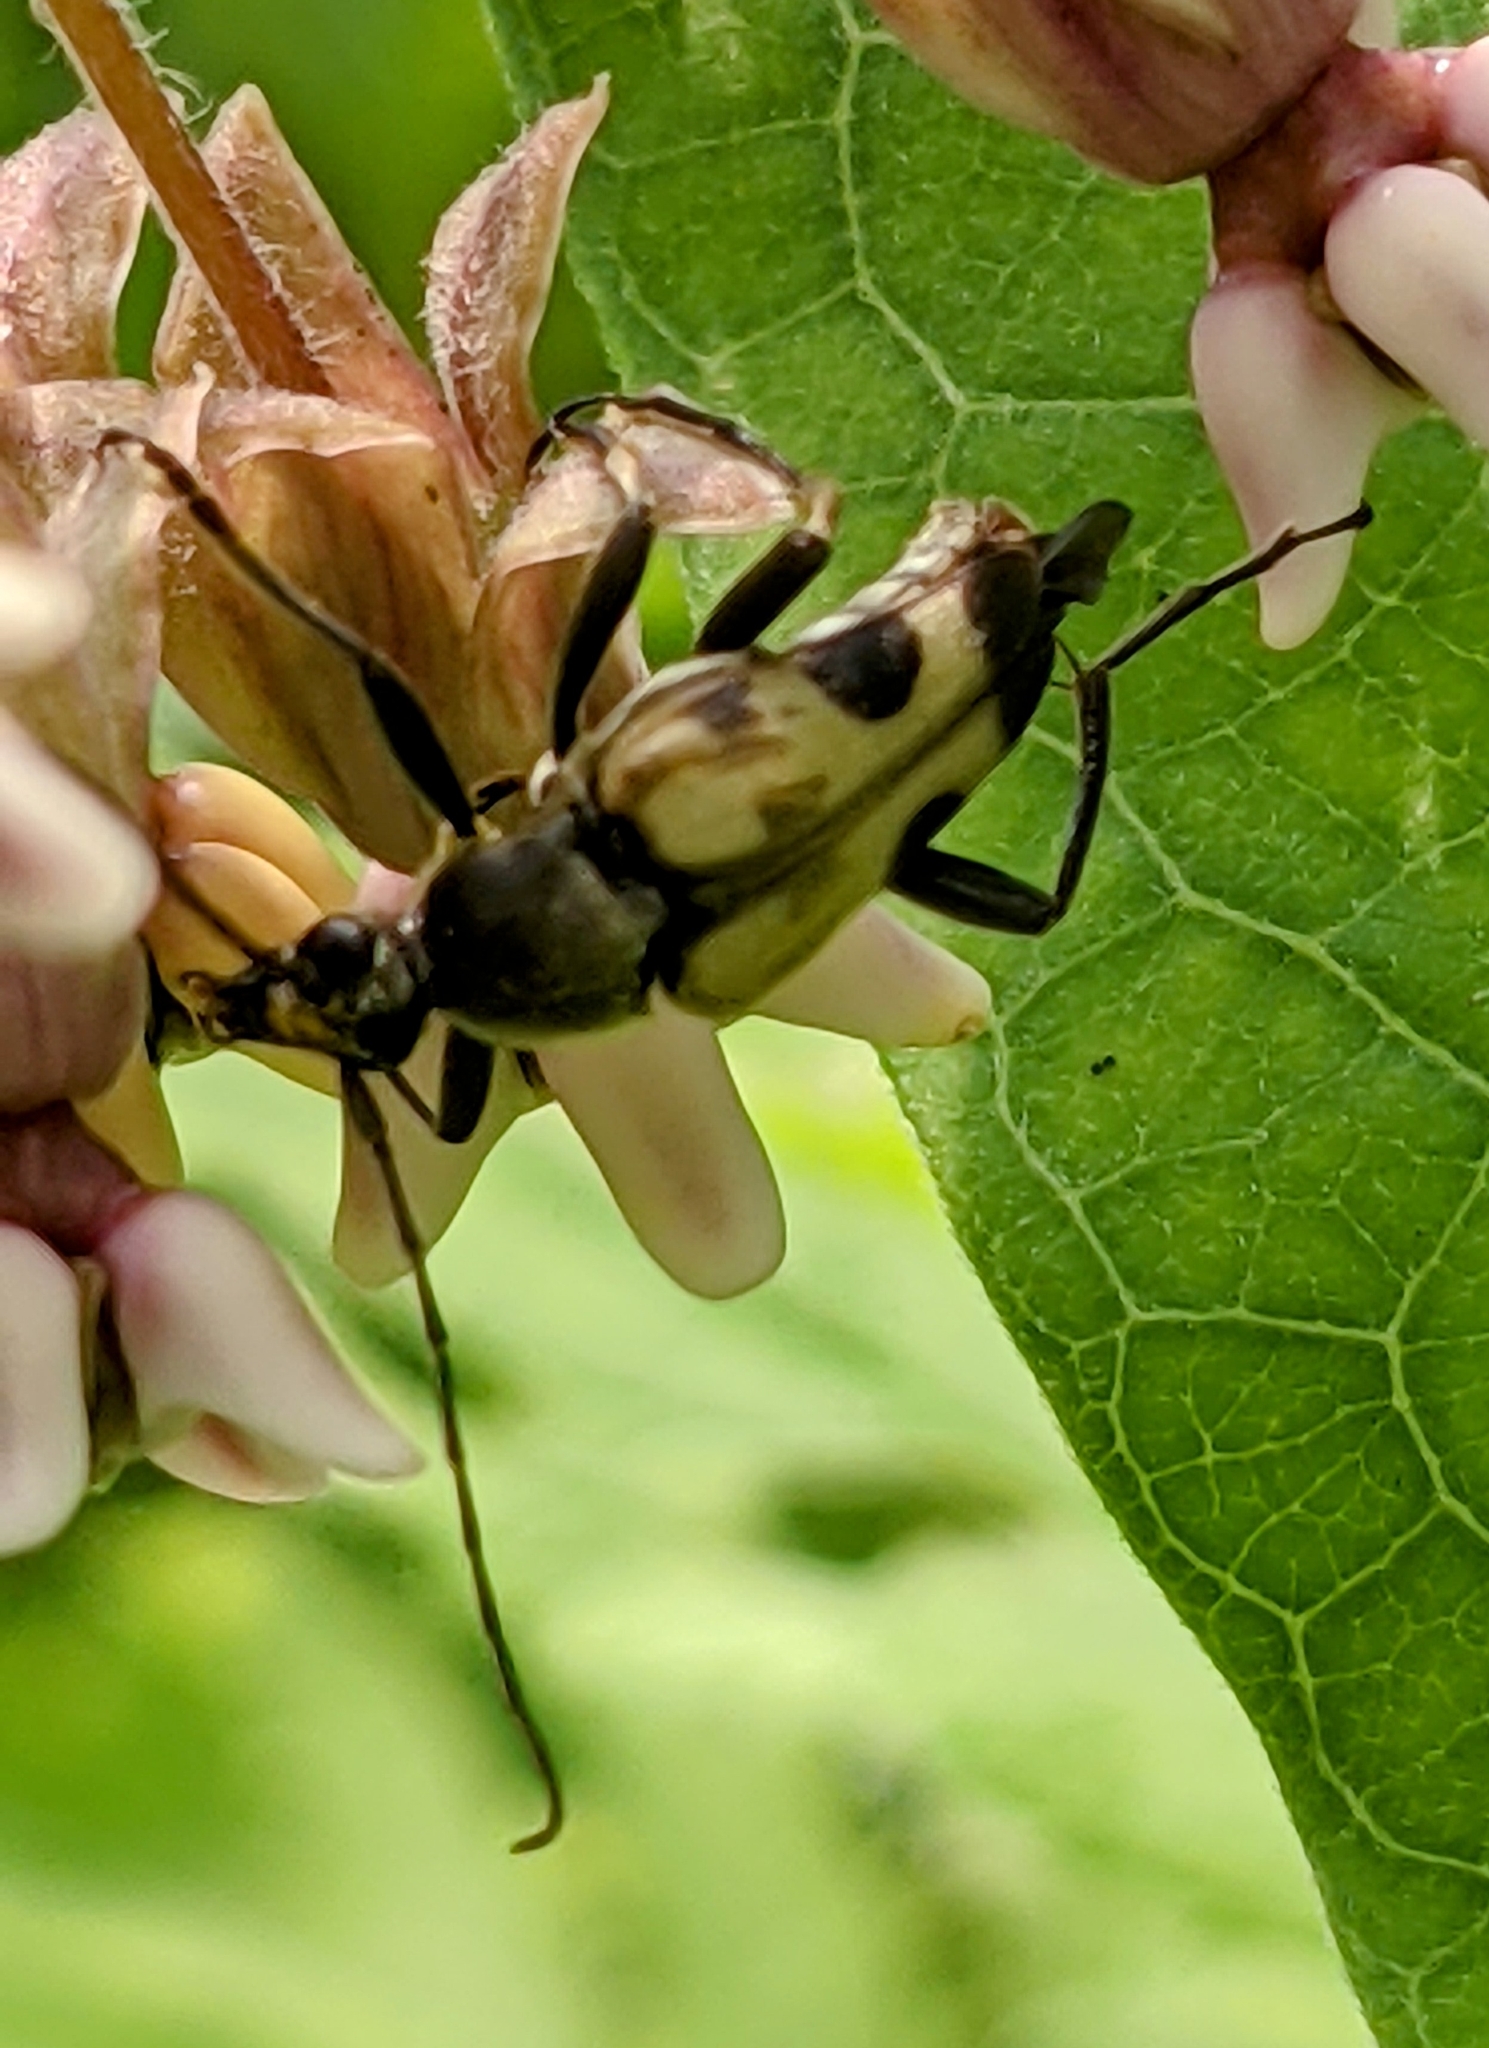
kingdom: Animalia
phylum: Arthropoda
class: Insecta
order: Coleoptera
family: Cerambycidae
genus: Judolia
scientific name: Judolia cordifera
